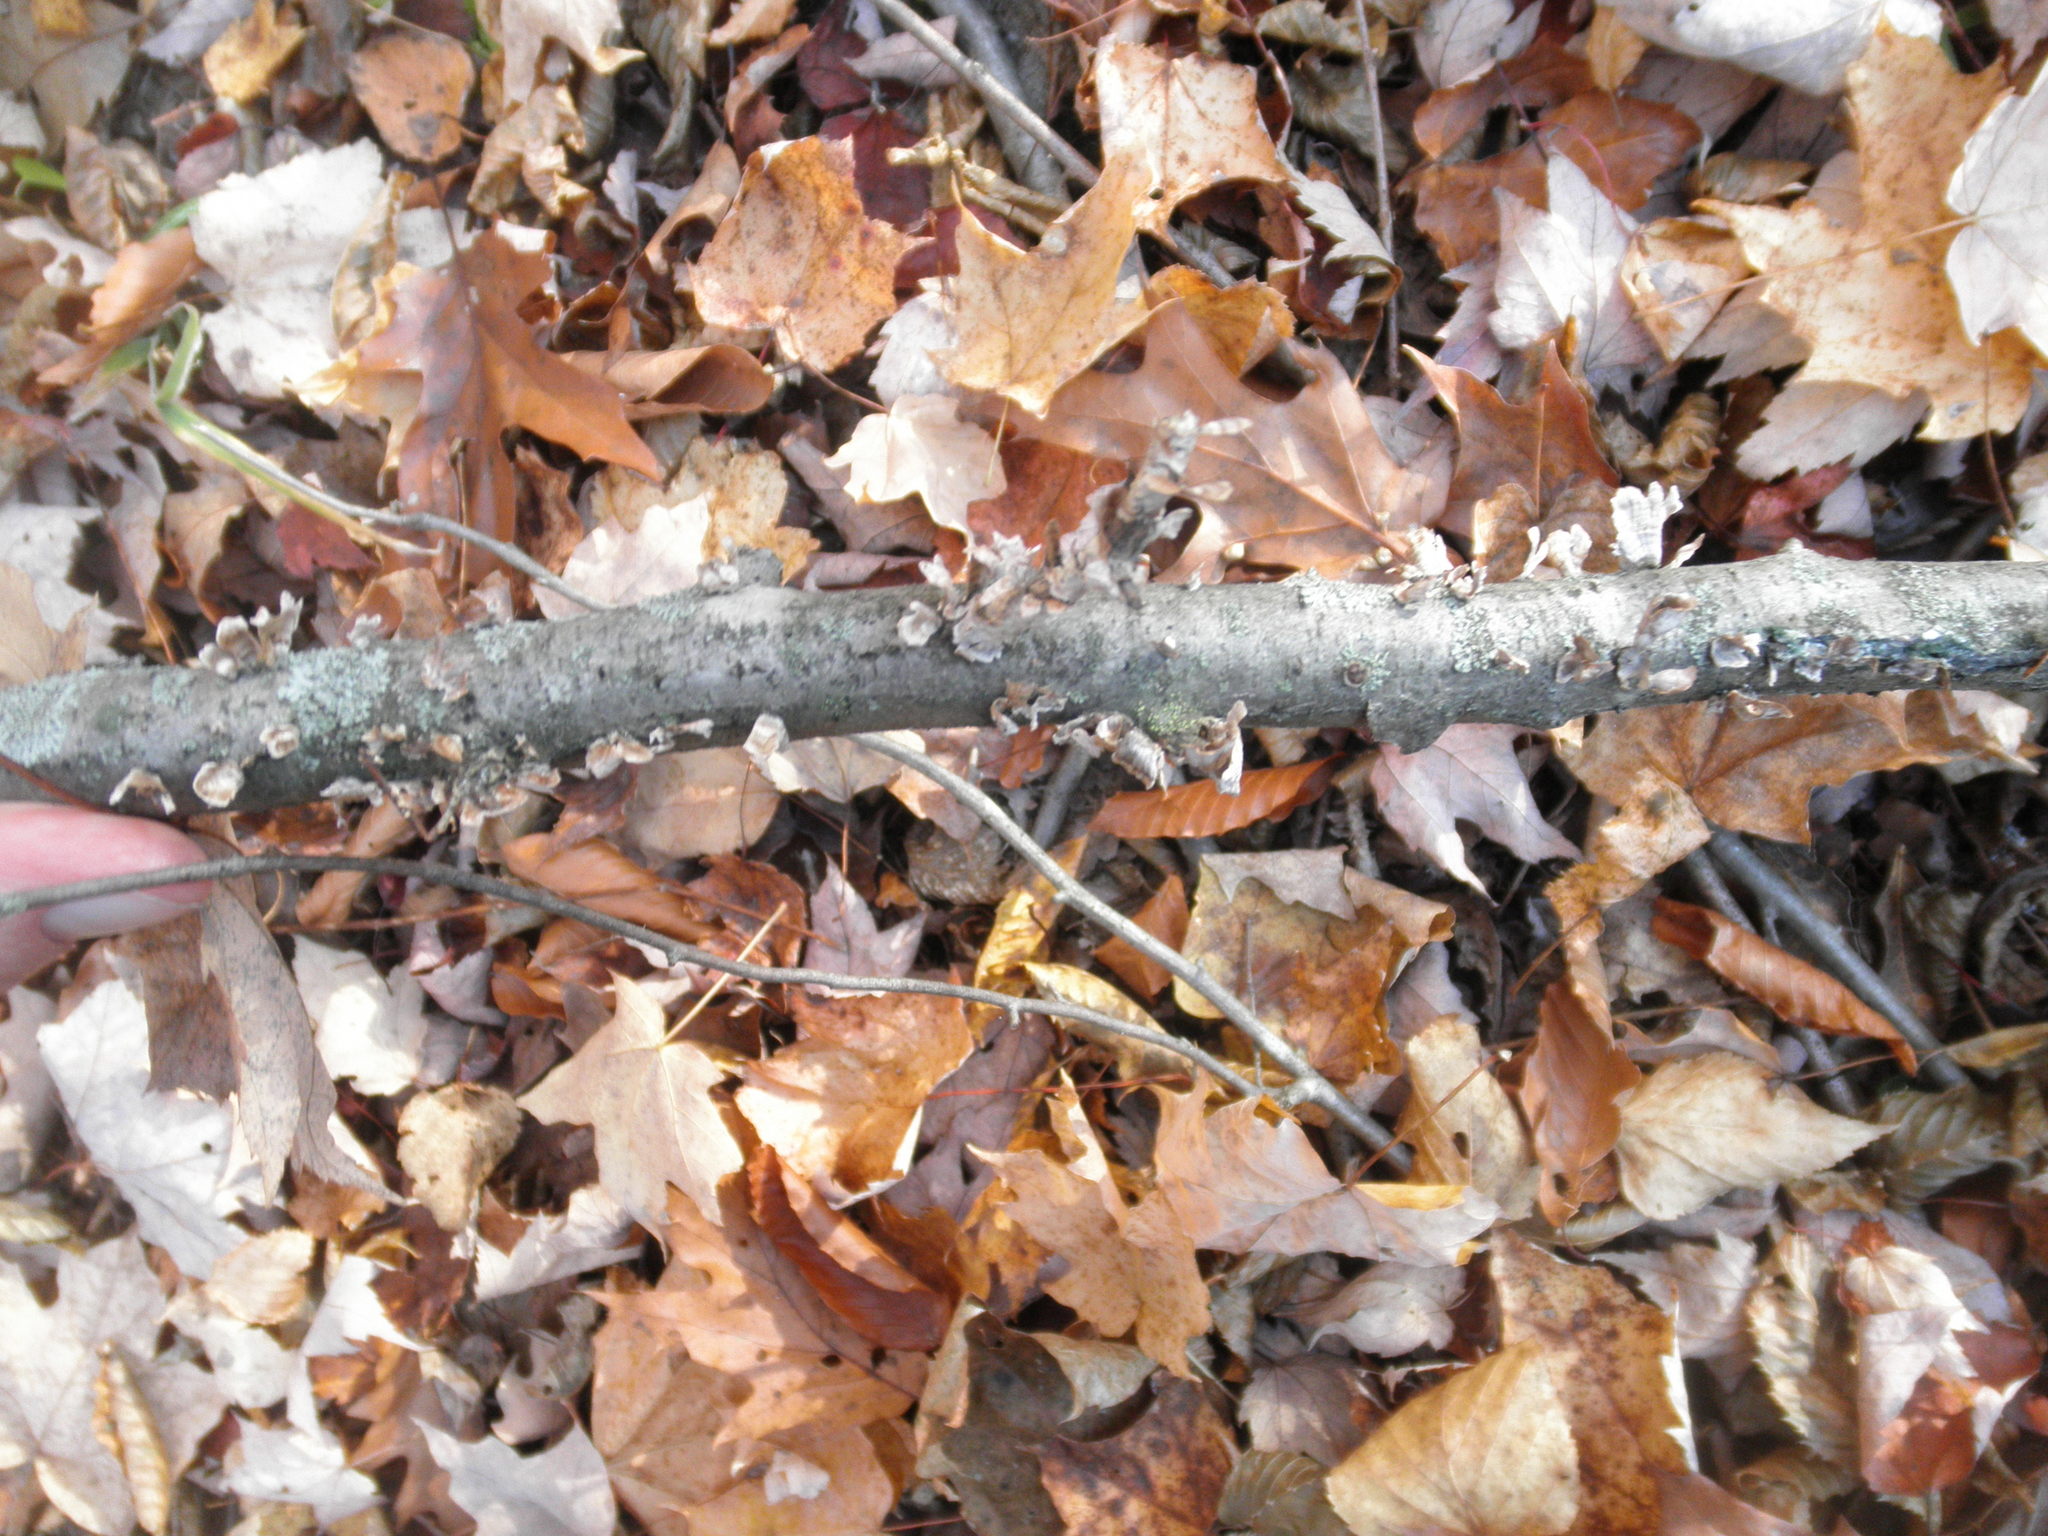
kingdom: Fungi
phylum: Basidiomycota
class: Agaricomycetes
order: Russulales
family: Stereaceae
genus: Stereum
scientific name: Stereum striatum
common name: Silky parchment
